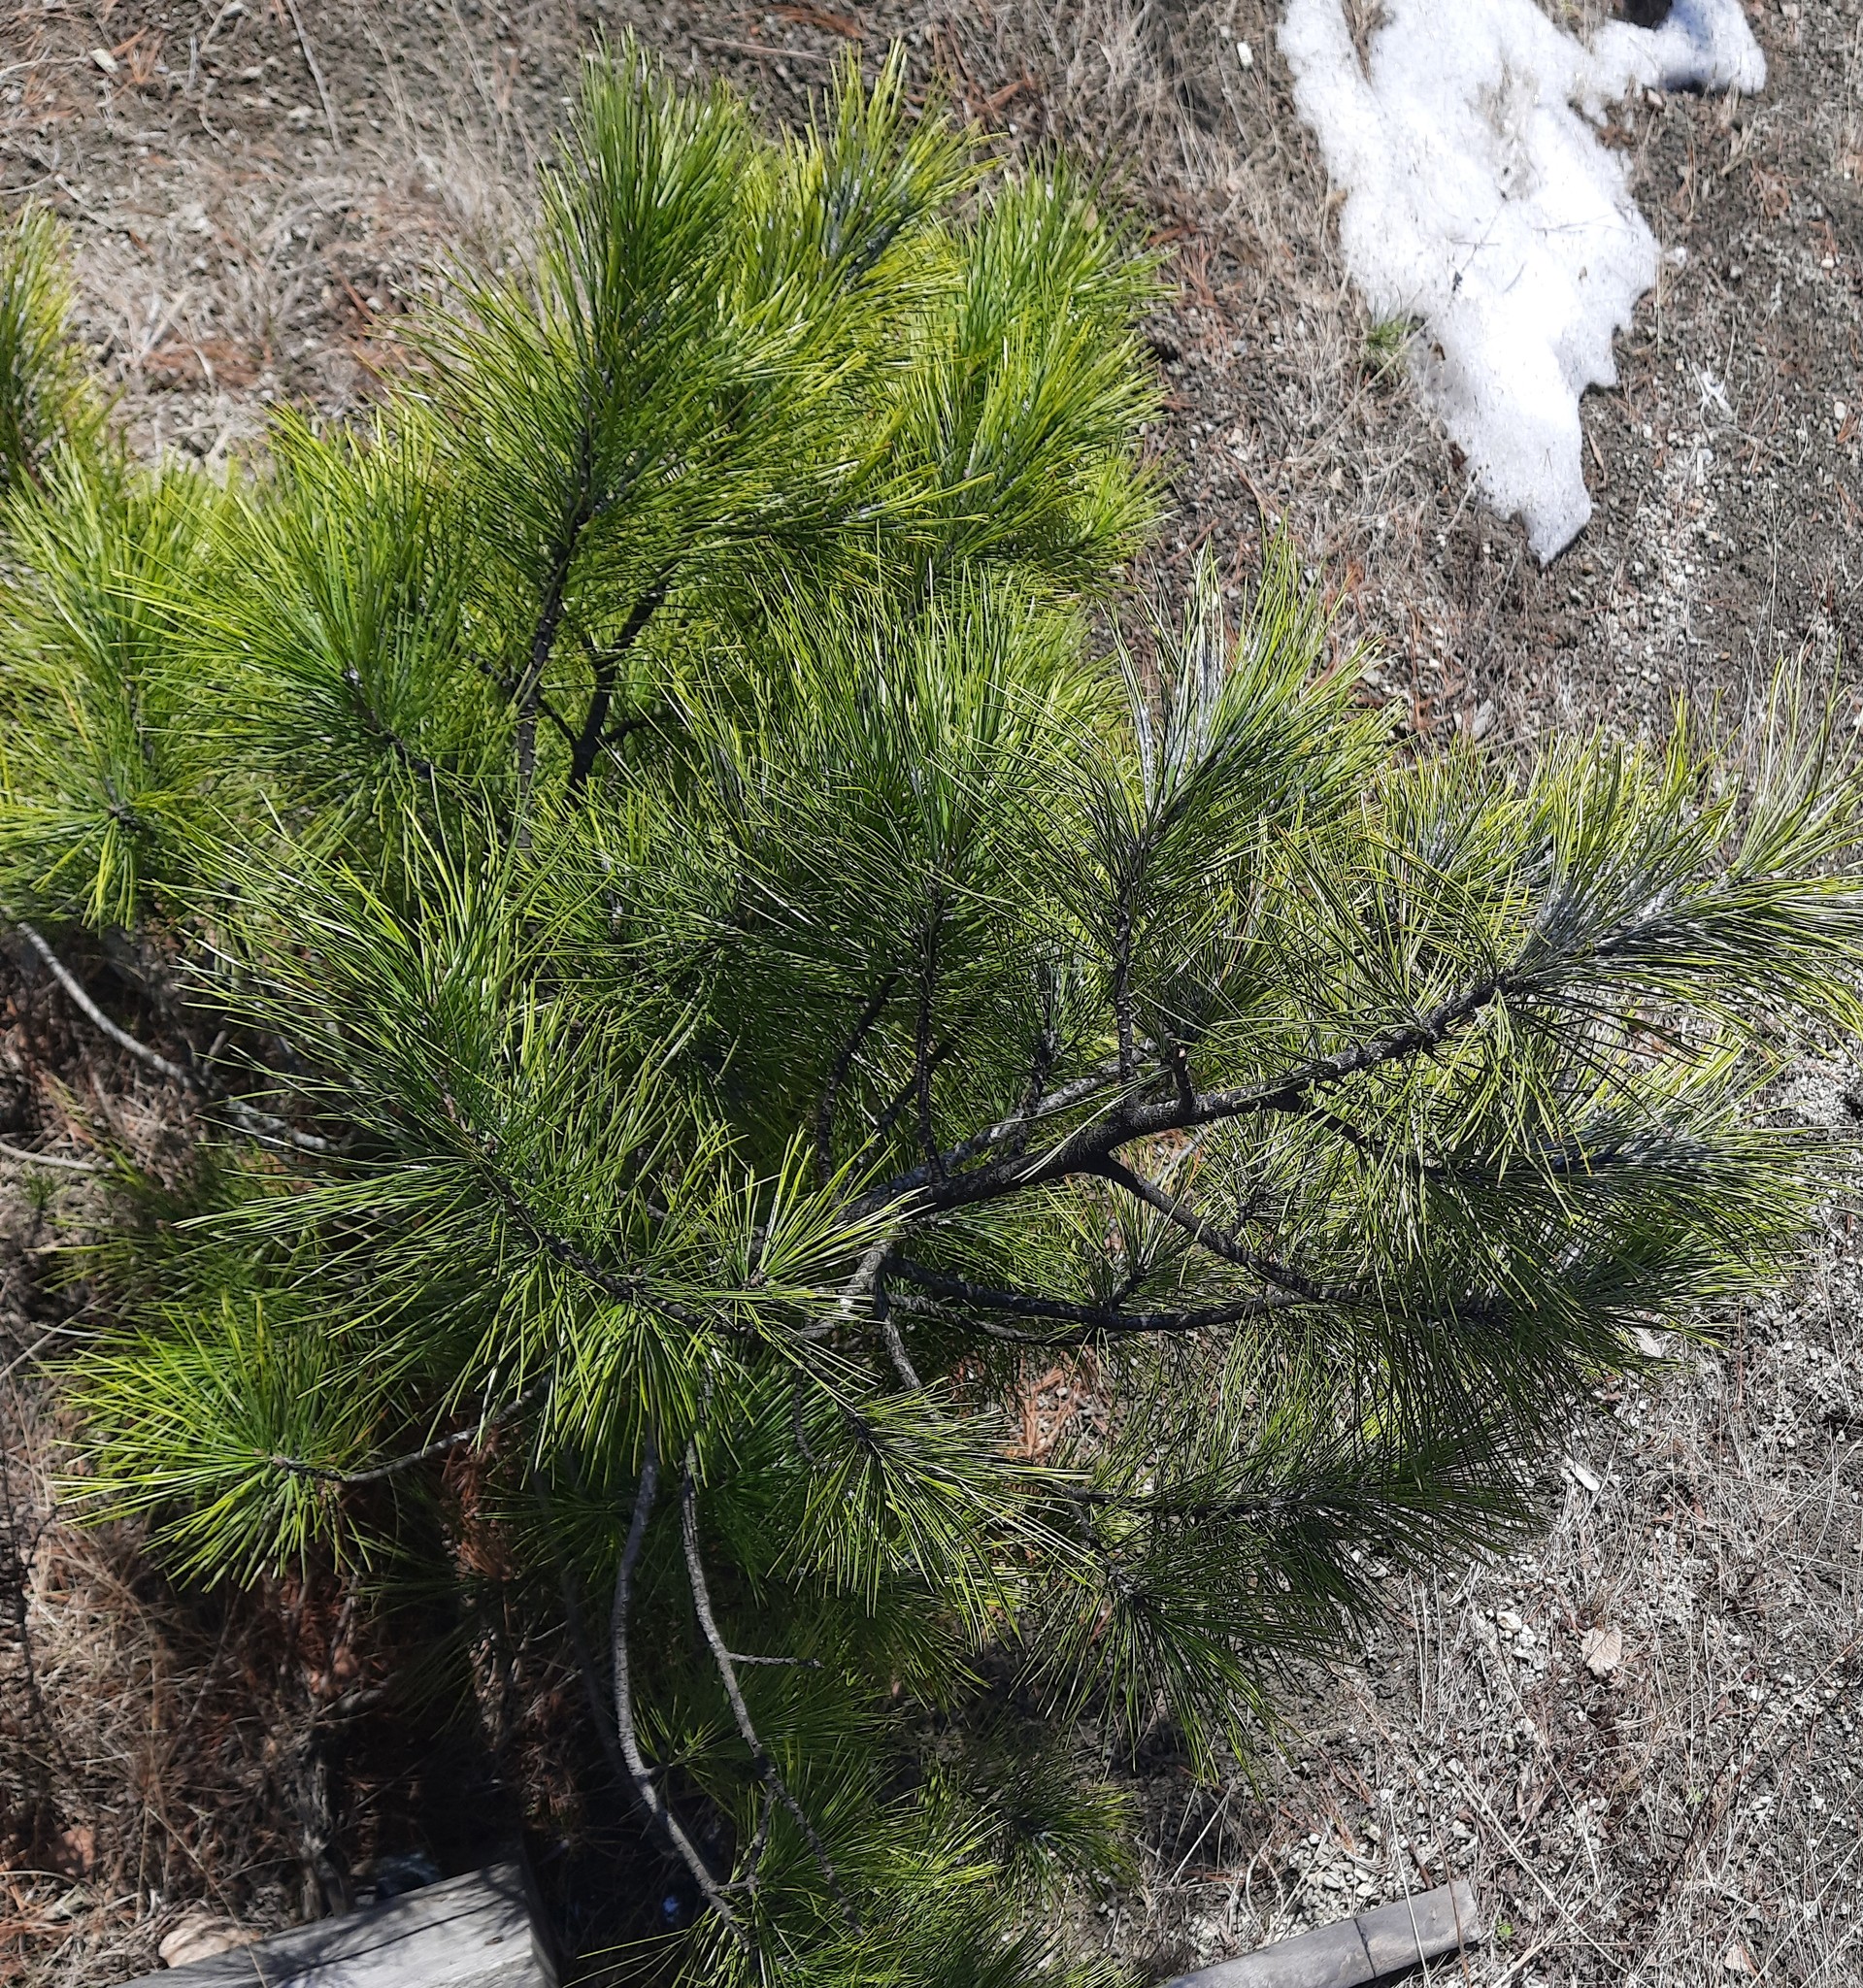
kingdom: Plantae
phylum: Tracheophyta
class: Pinopsida
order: Pinales
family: Pinaceae
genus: Pinus
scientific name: Pinus sibirica
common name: Siberian pine
